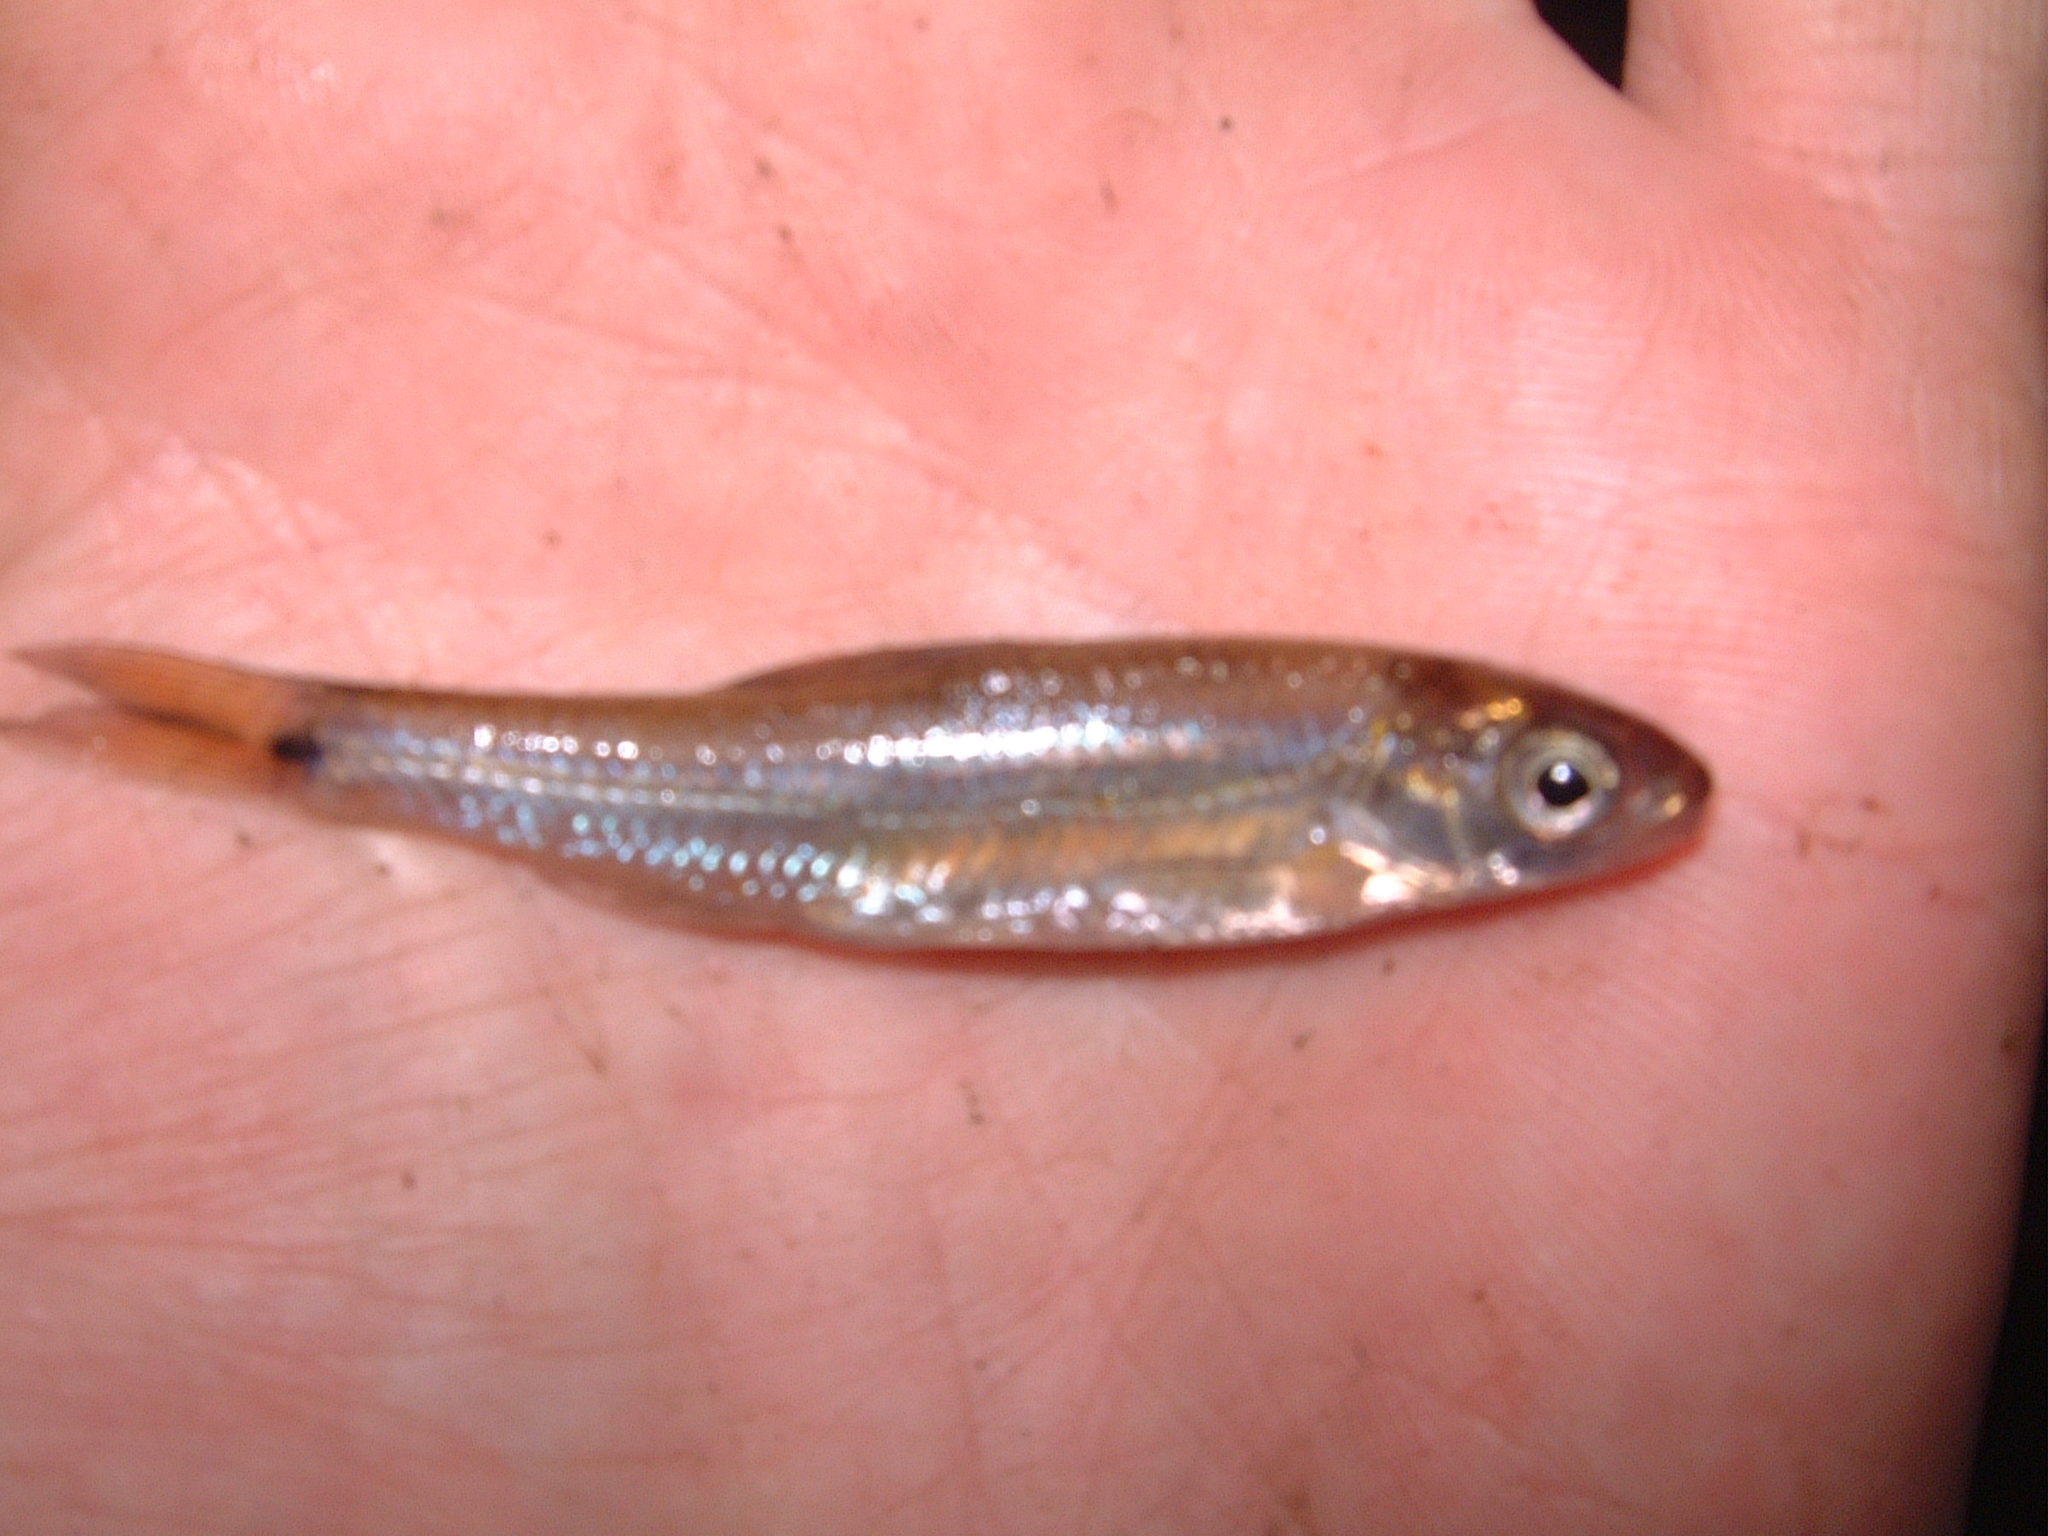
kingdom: Animalia
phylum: Chordata
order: Cypriniformes
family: Cyprinidae
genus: Notropis
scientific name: Notropis
